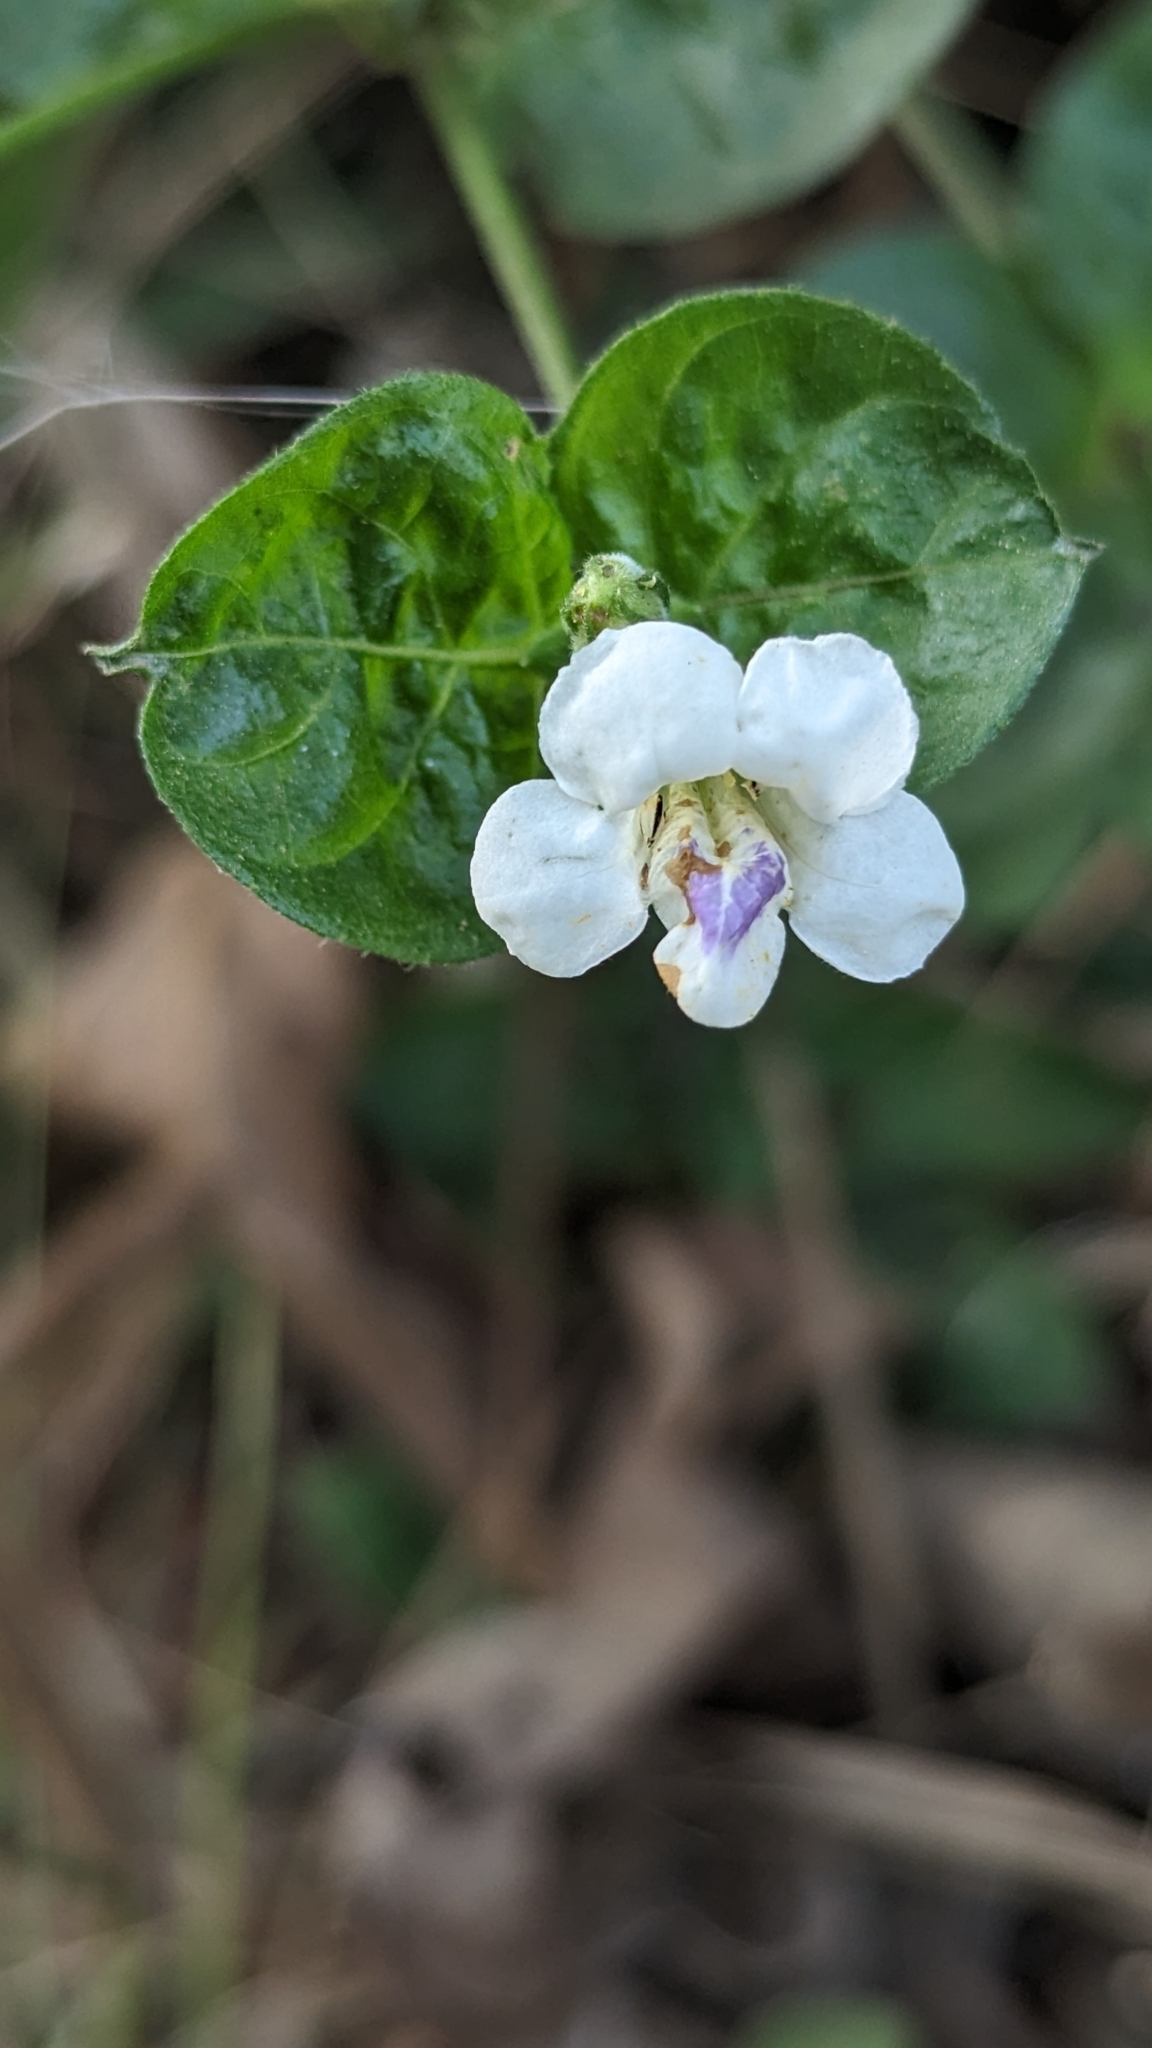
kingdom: Plantae
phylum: Tracheophyta
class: Magnoliopsida
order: Lamiales
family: Acanthaceae
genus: Asystasia
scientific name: Asystasia intrusa
